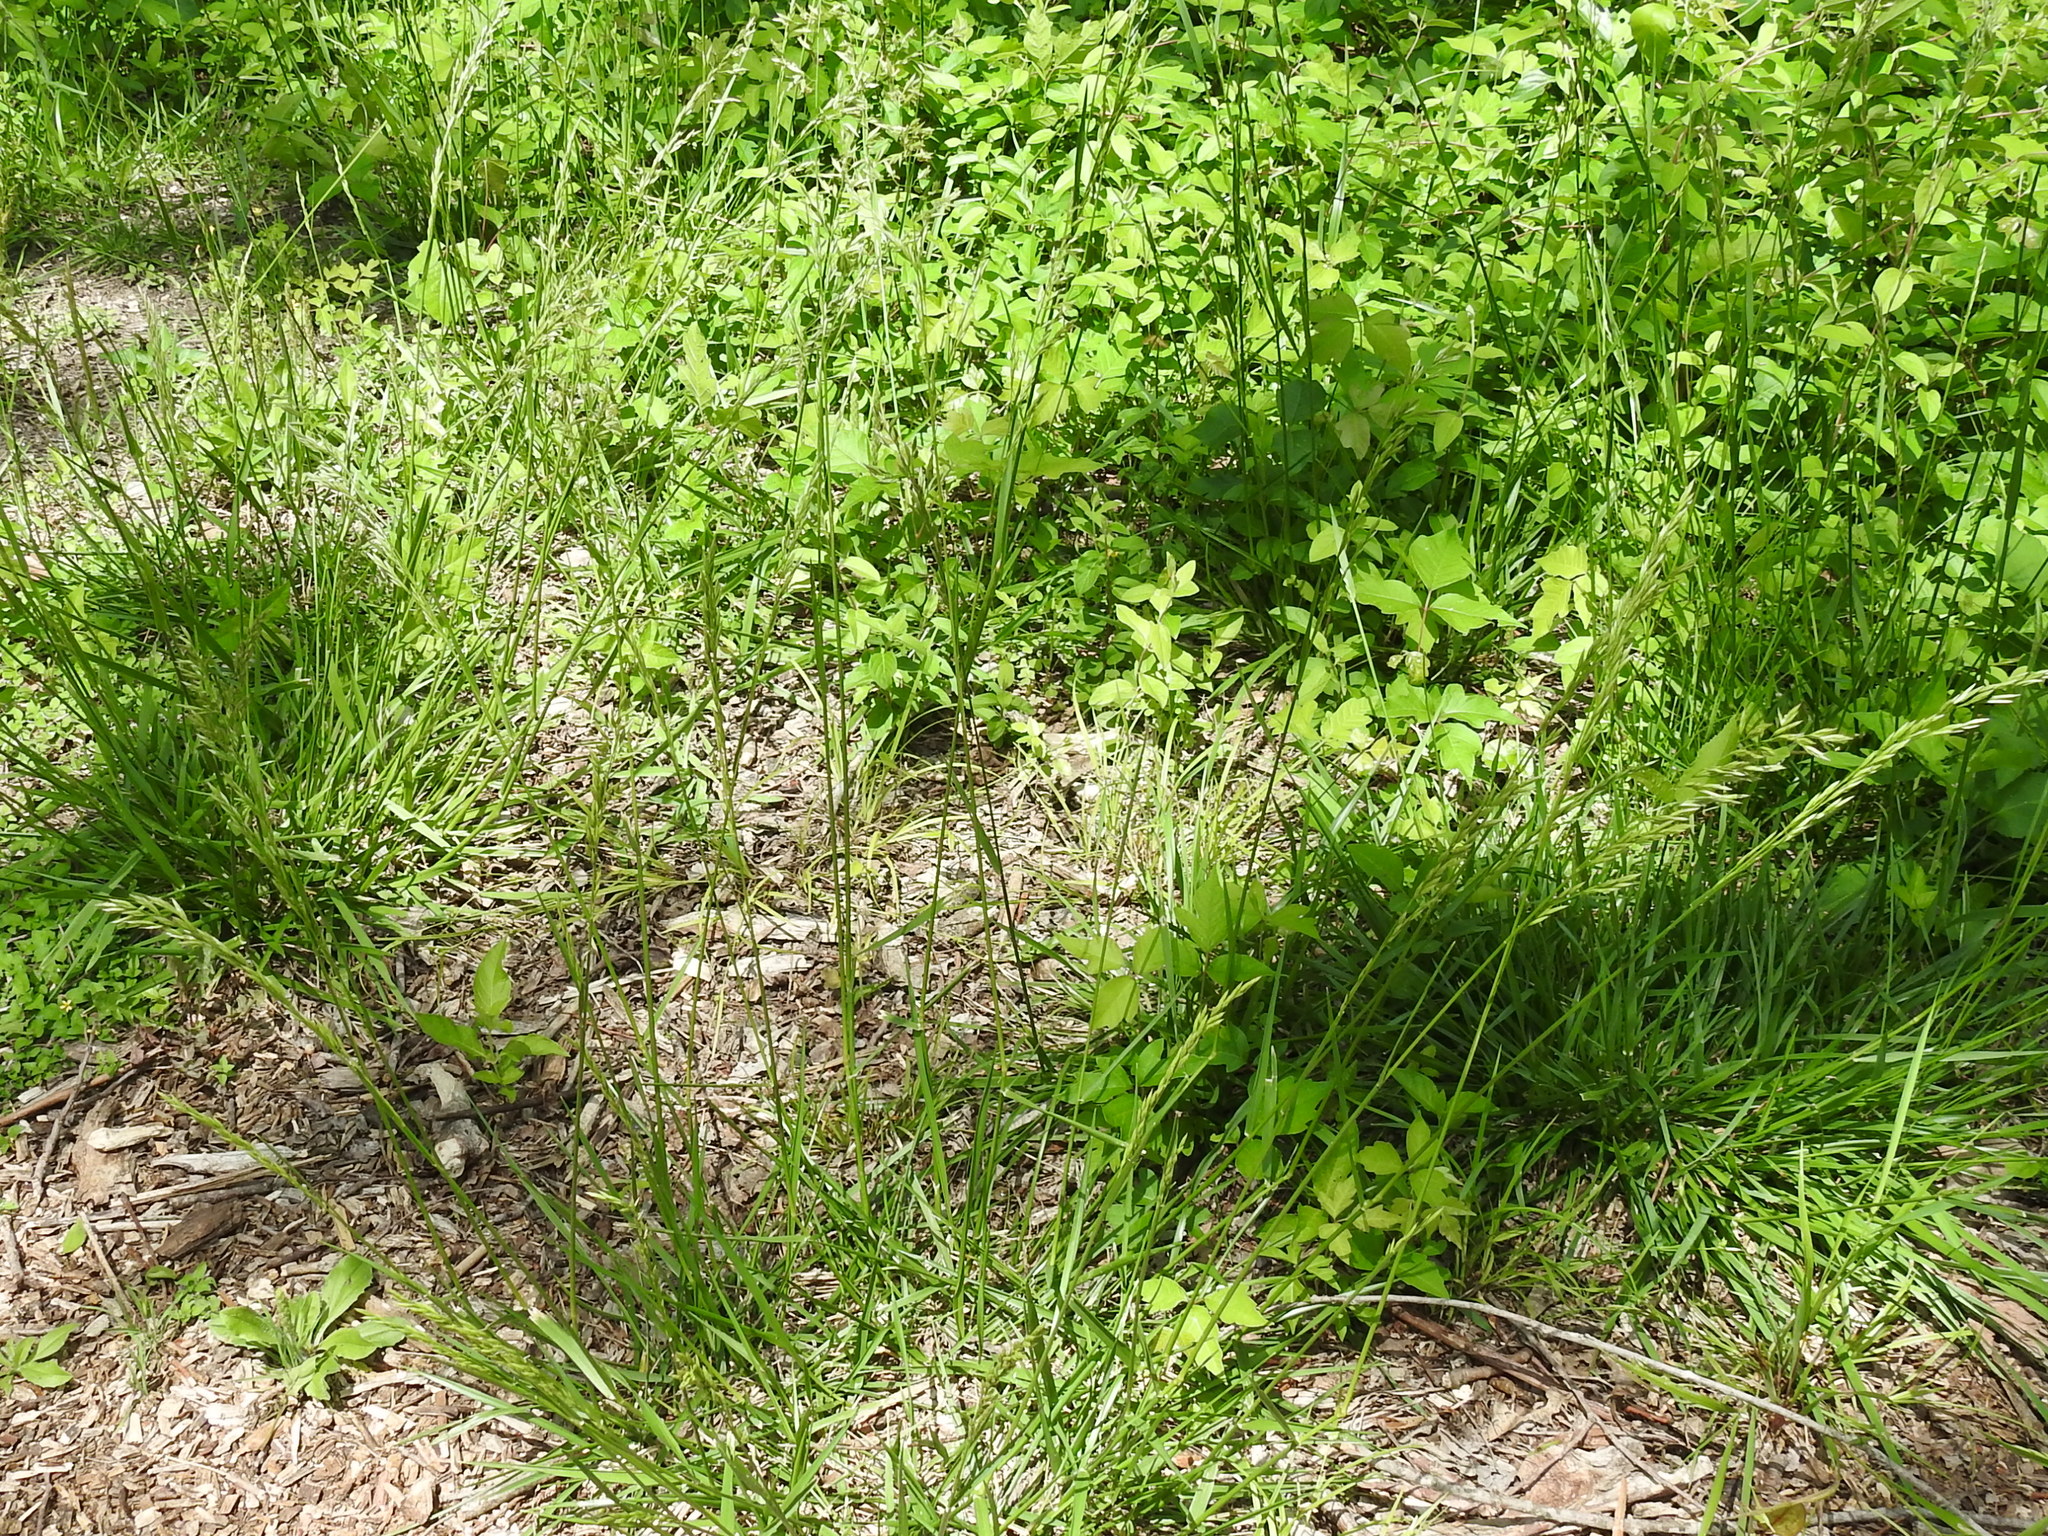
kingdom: Plantae
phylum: Tracheophyta
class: Liliopsida
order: Poales
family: Poaceae
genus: Lolium
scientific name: Lolium arundinaceum
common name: Reed fescue
